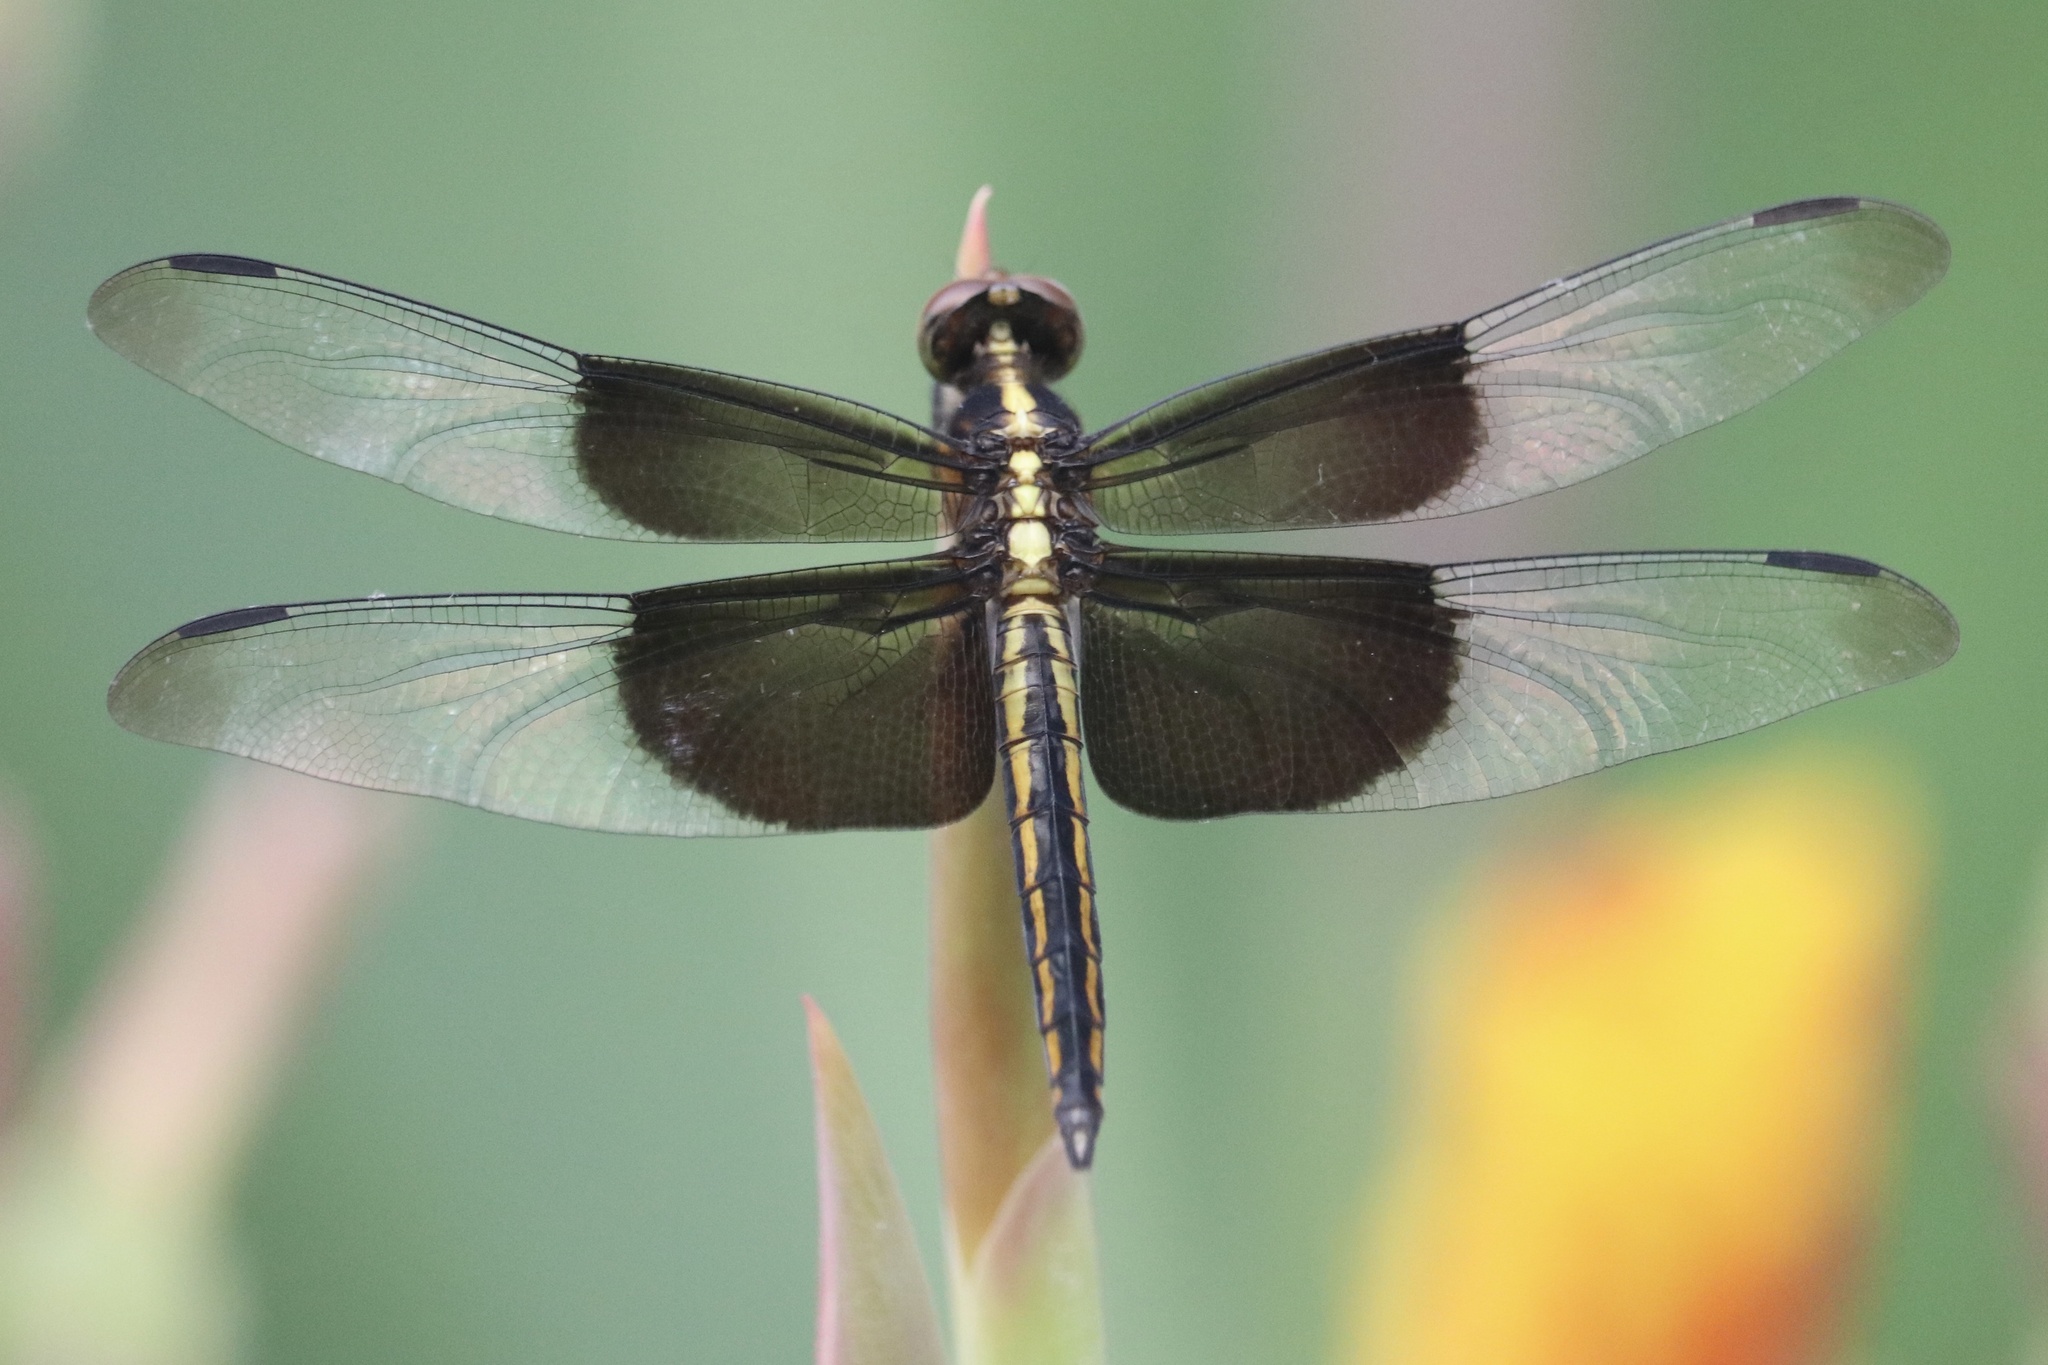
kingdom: Animalia
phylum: Arthropoda
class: Insecta
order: Odonata
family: Libellulidae
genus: Libellula
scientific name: Libellula luctuosa
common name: Widow skimmer
